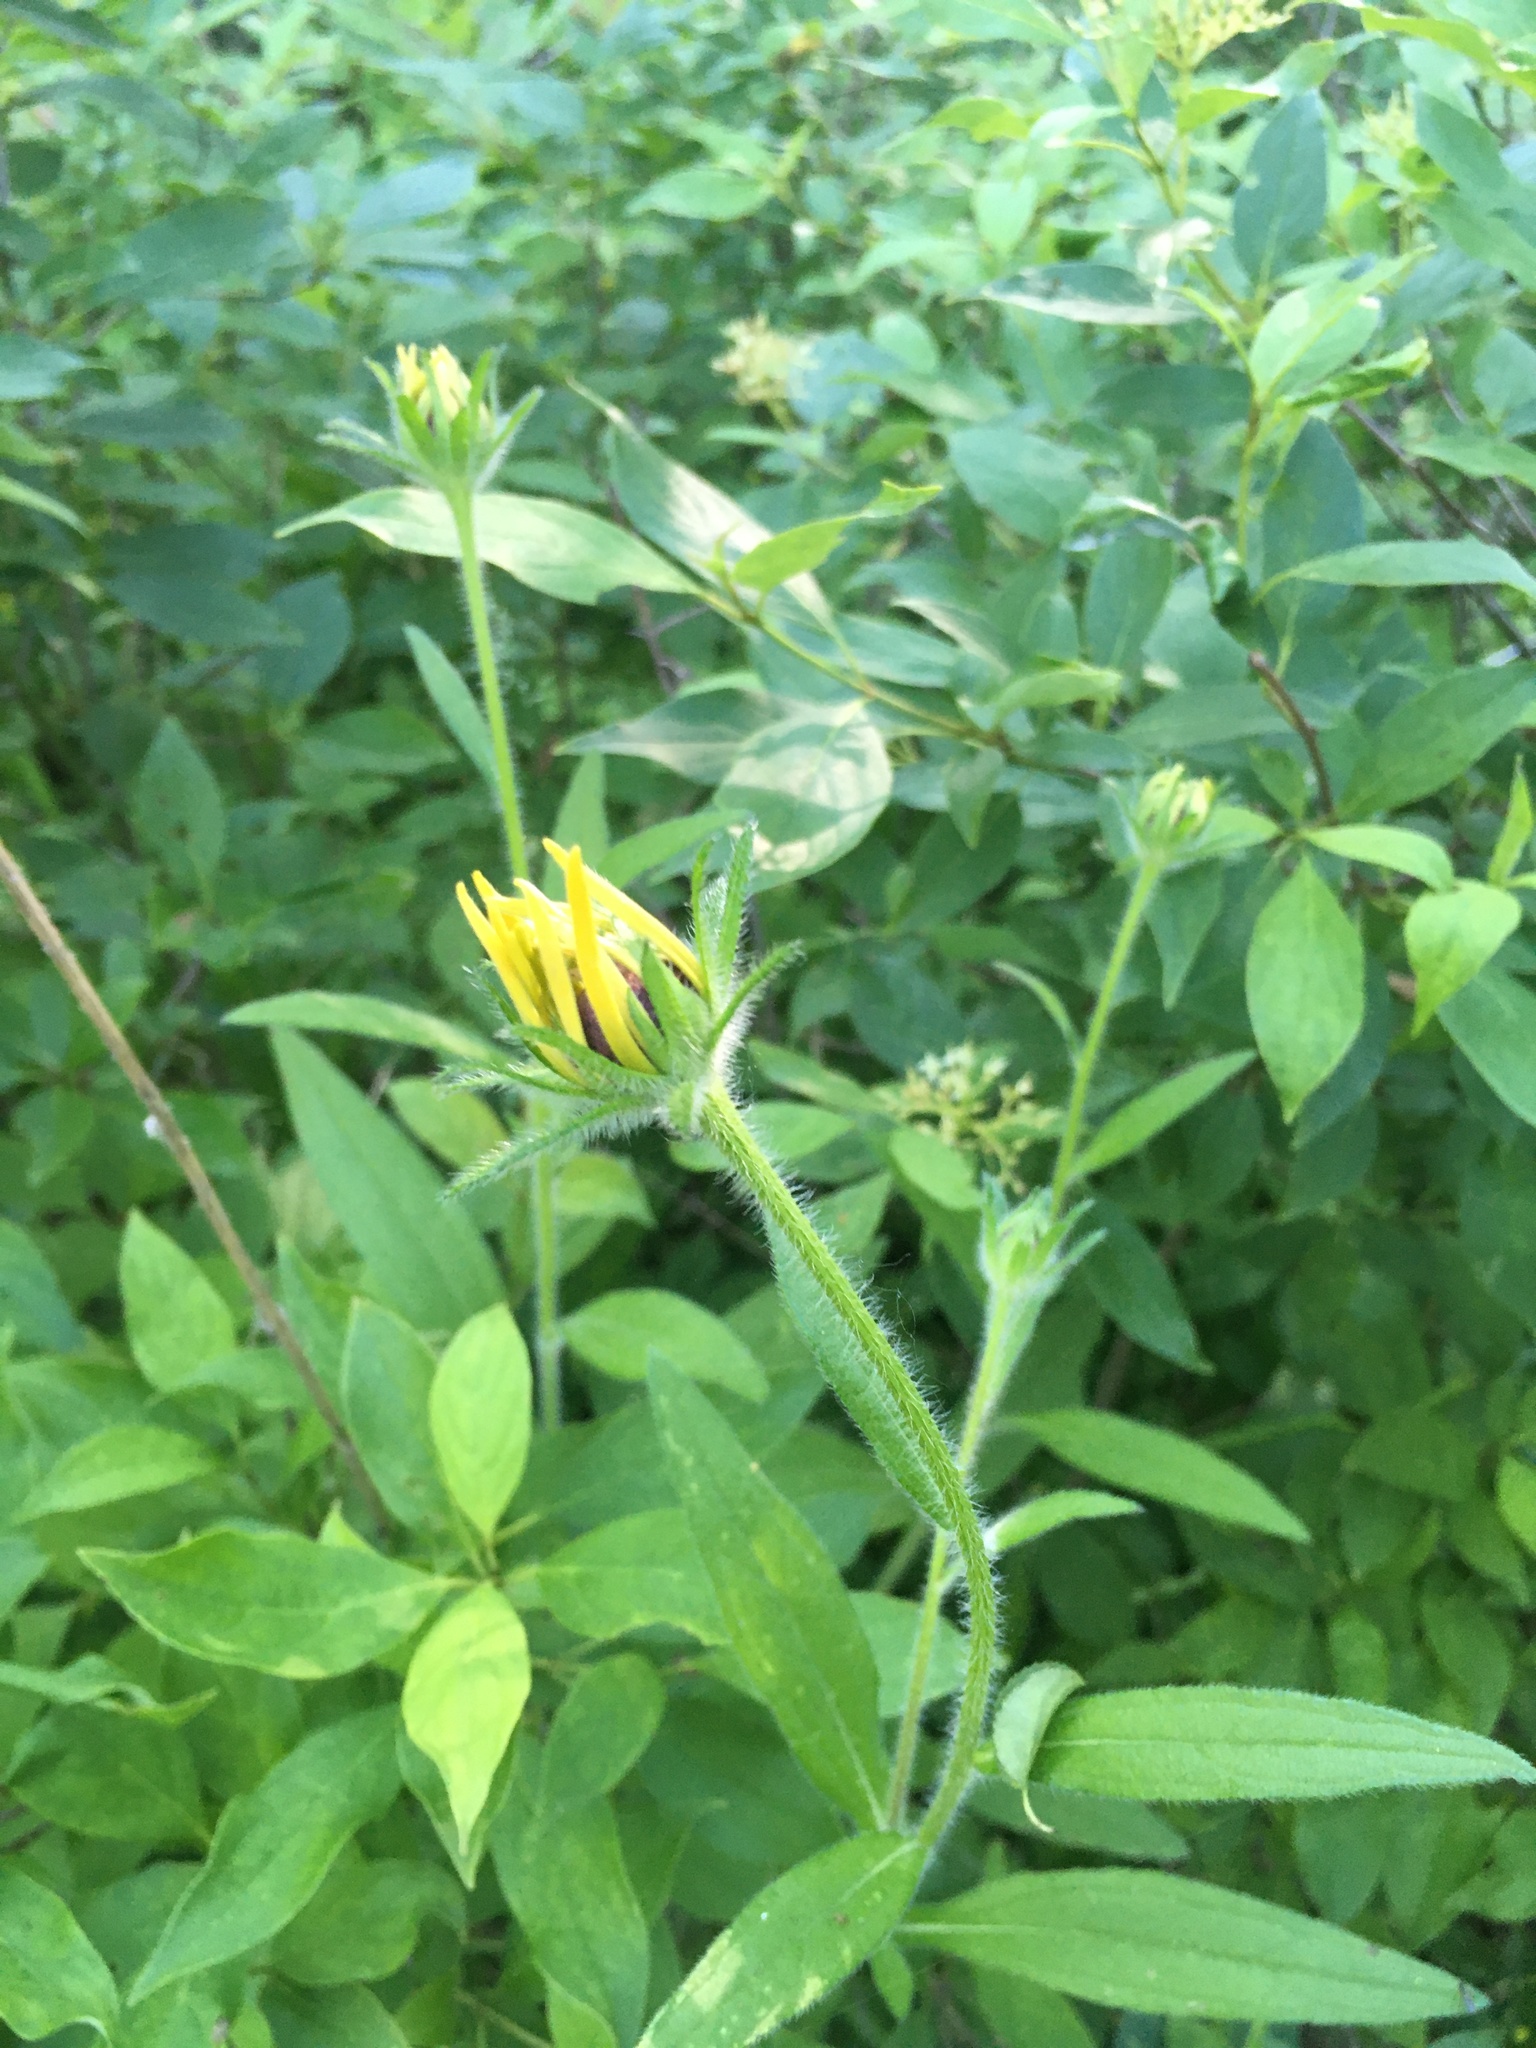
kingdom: Plantae
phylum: Tracheophyta
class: Magnoliopsida
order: Asterales
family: Asteraceae
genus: Rudbeckia
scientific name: Rudbeckia hirta
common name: Black-eyed-susan
